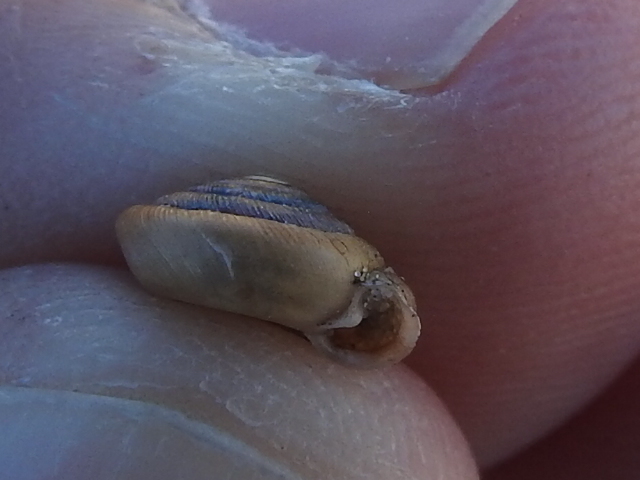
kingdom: Animalia
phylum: Mollusca
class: Gastropoda
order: Stylommatophora
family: Polygyridae
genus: Polygyra
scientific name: Polygyra cereolus
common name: Southern flatcone snail
